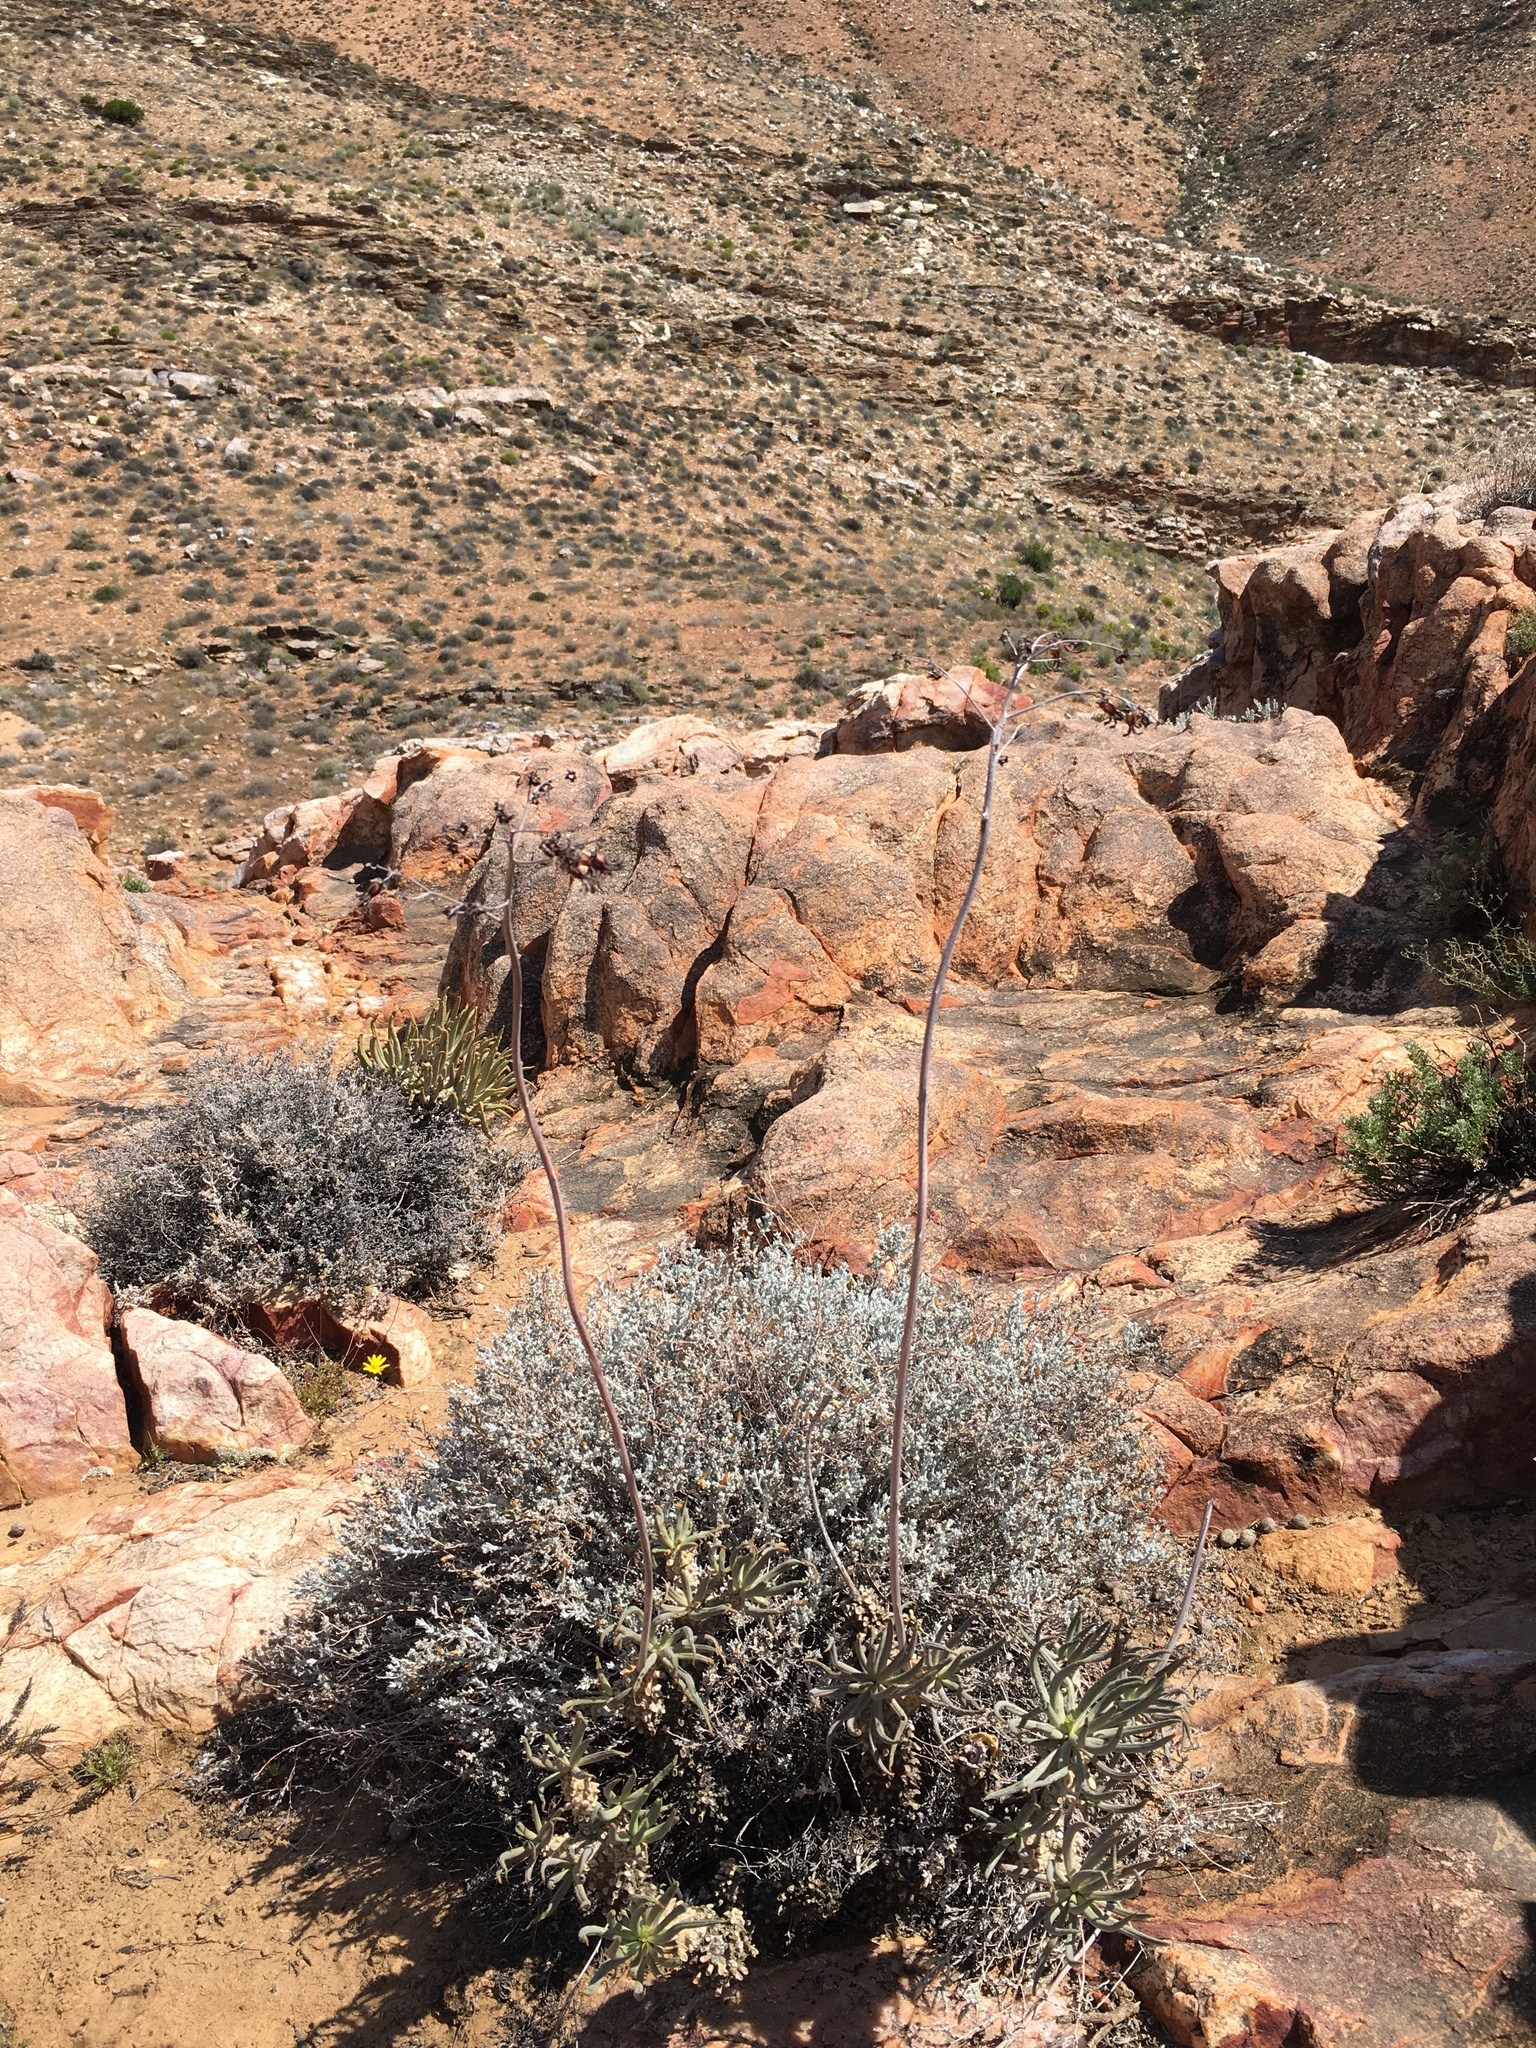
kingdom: Plantae
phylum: Tracheophyta
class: Magnoliopsida
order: Saxifragales
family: Crassulaceae
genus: Tylecodon
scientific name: Tylecodon wallichii
